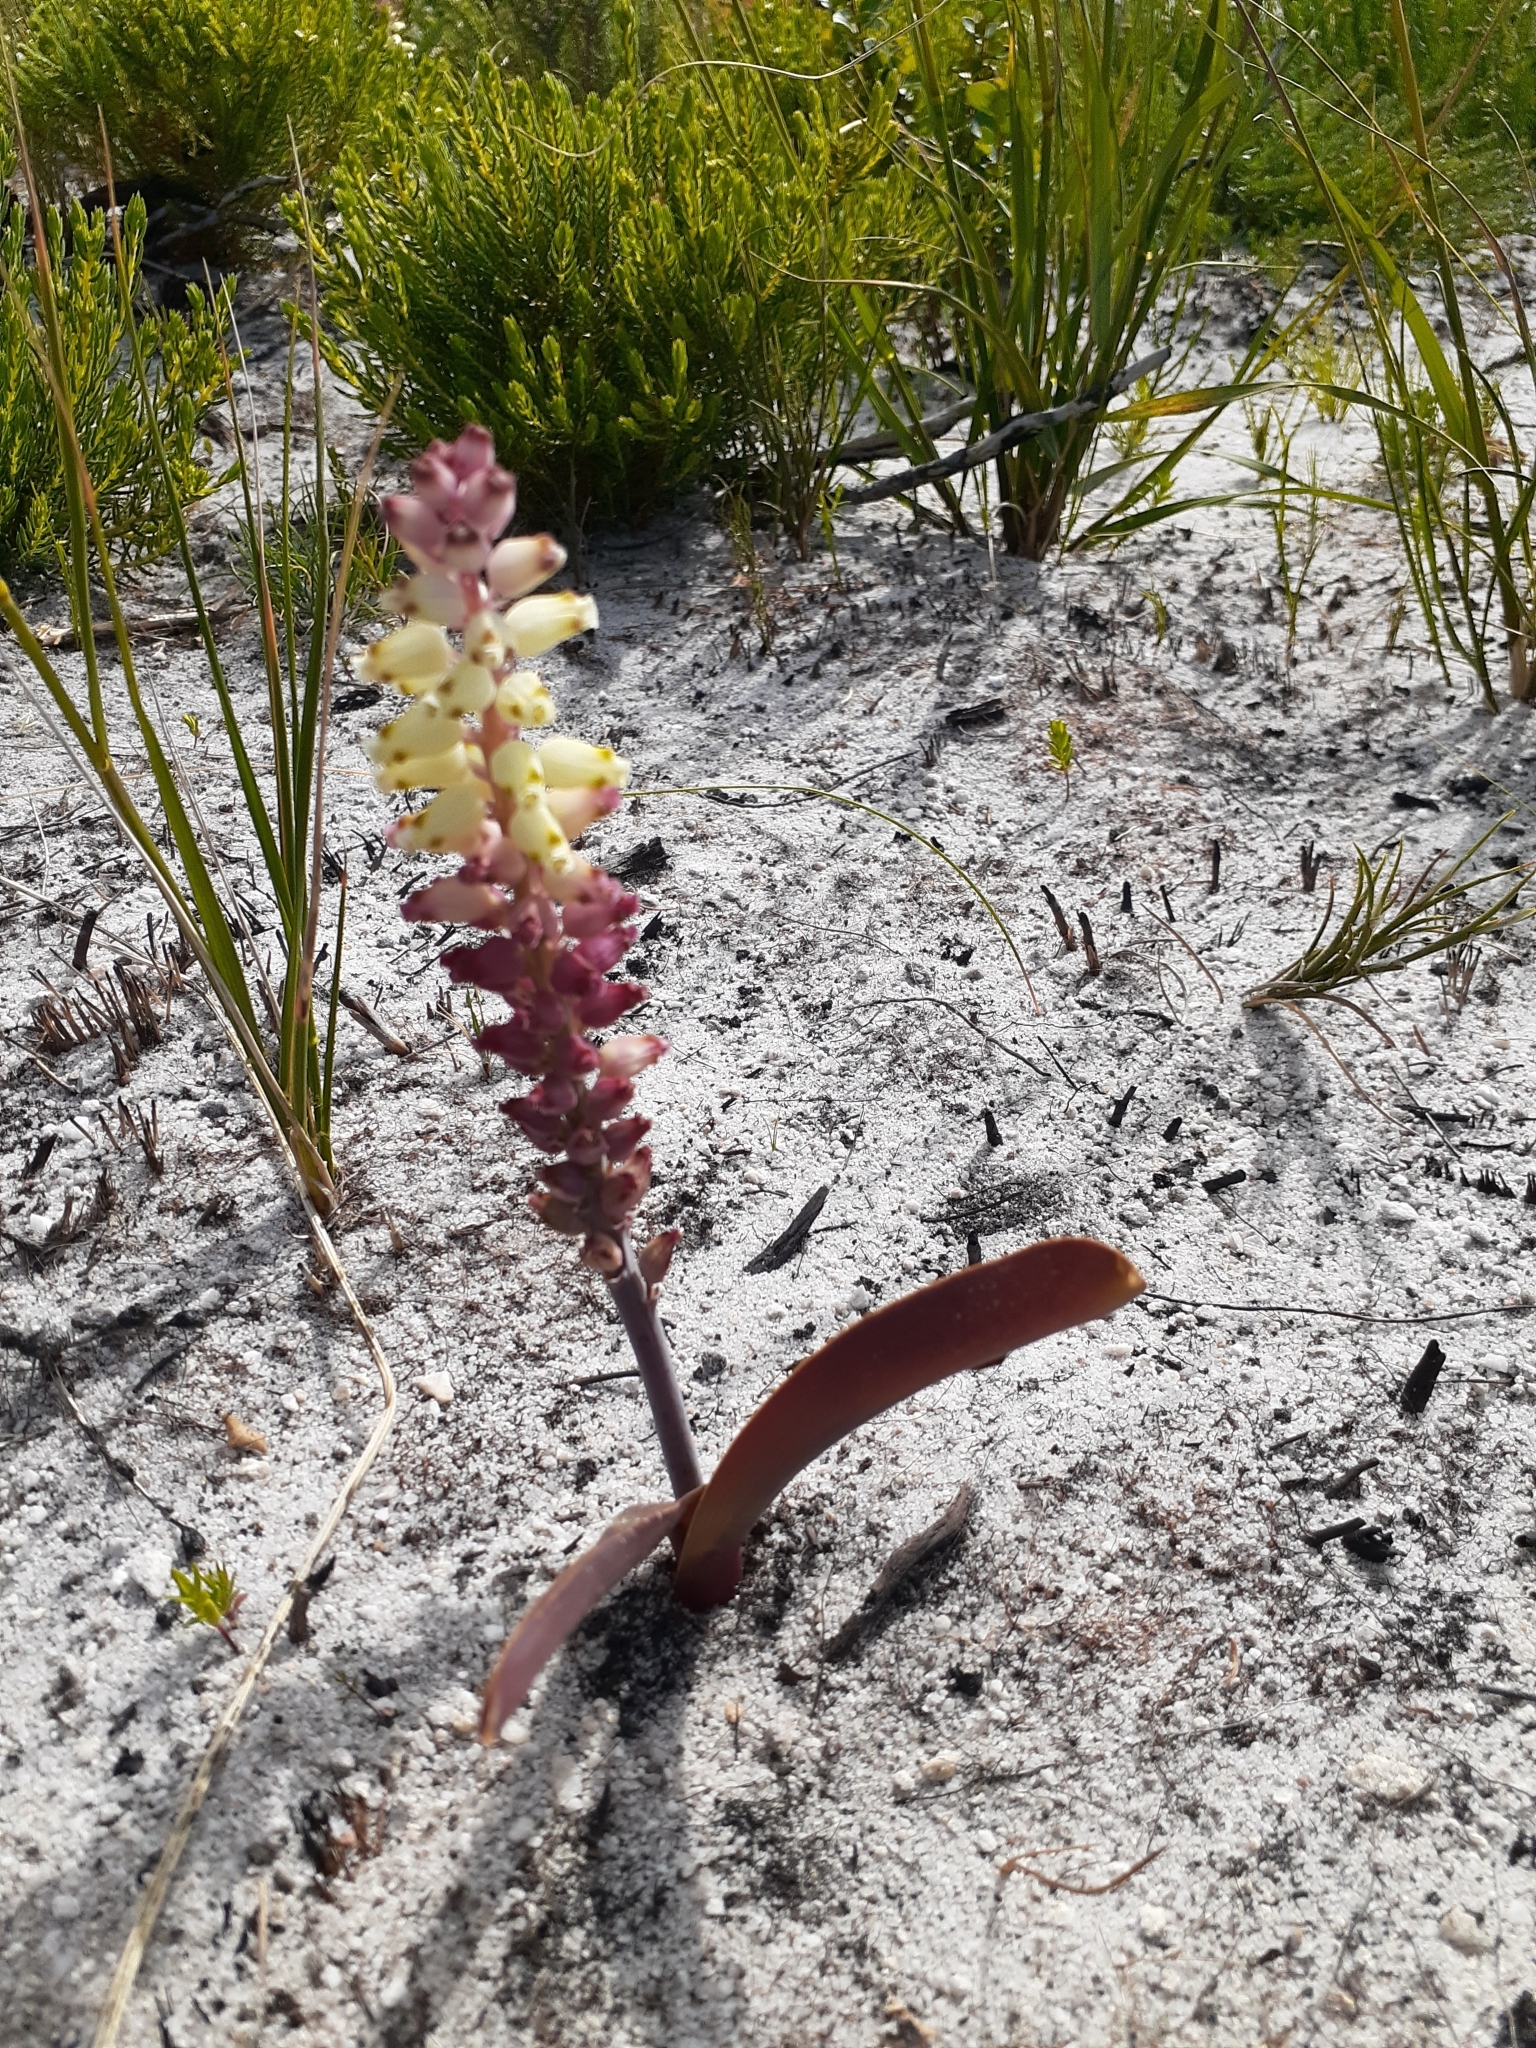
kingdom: Plantae
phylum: Tracheophyta
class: Liliopsida
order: Asparagales
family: Asparagaceae
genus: Lachenalia
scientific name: Lachenalia peersii
